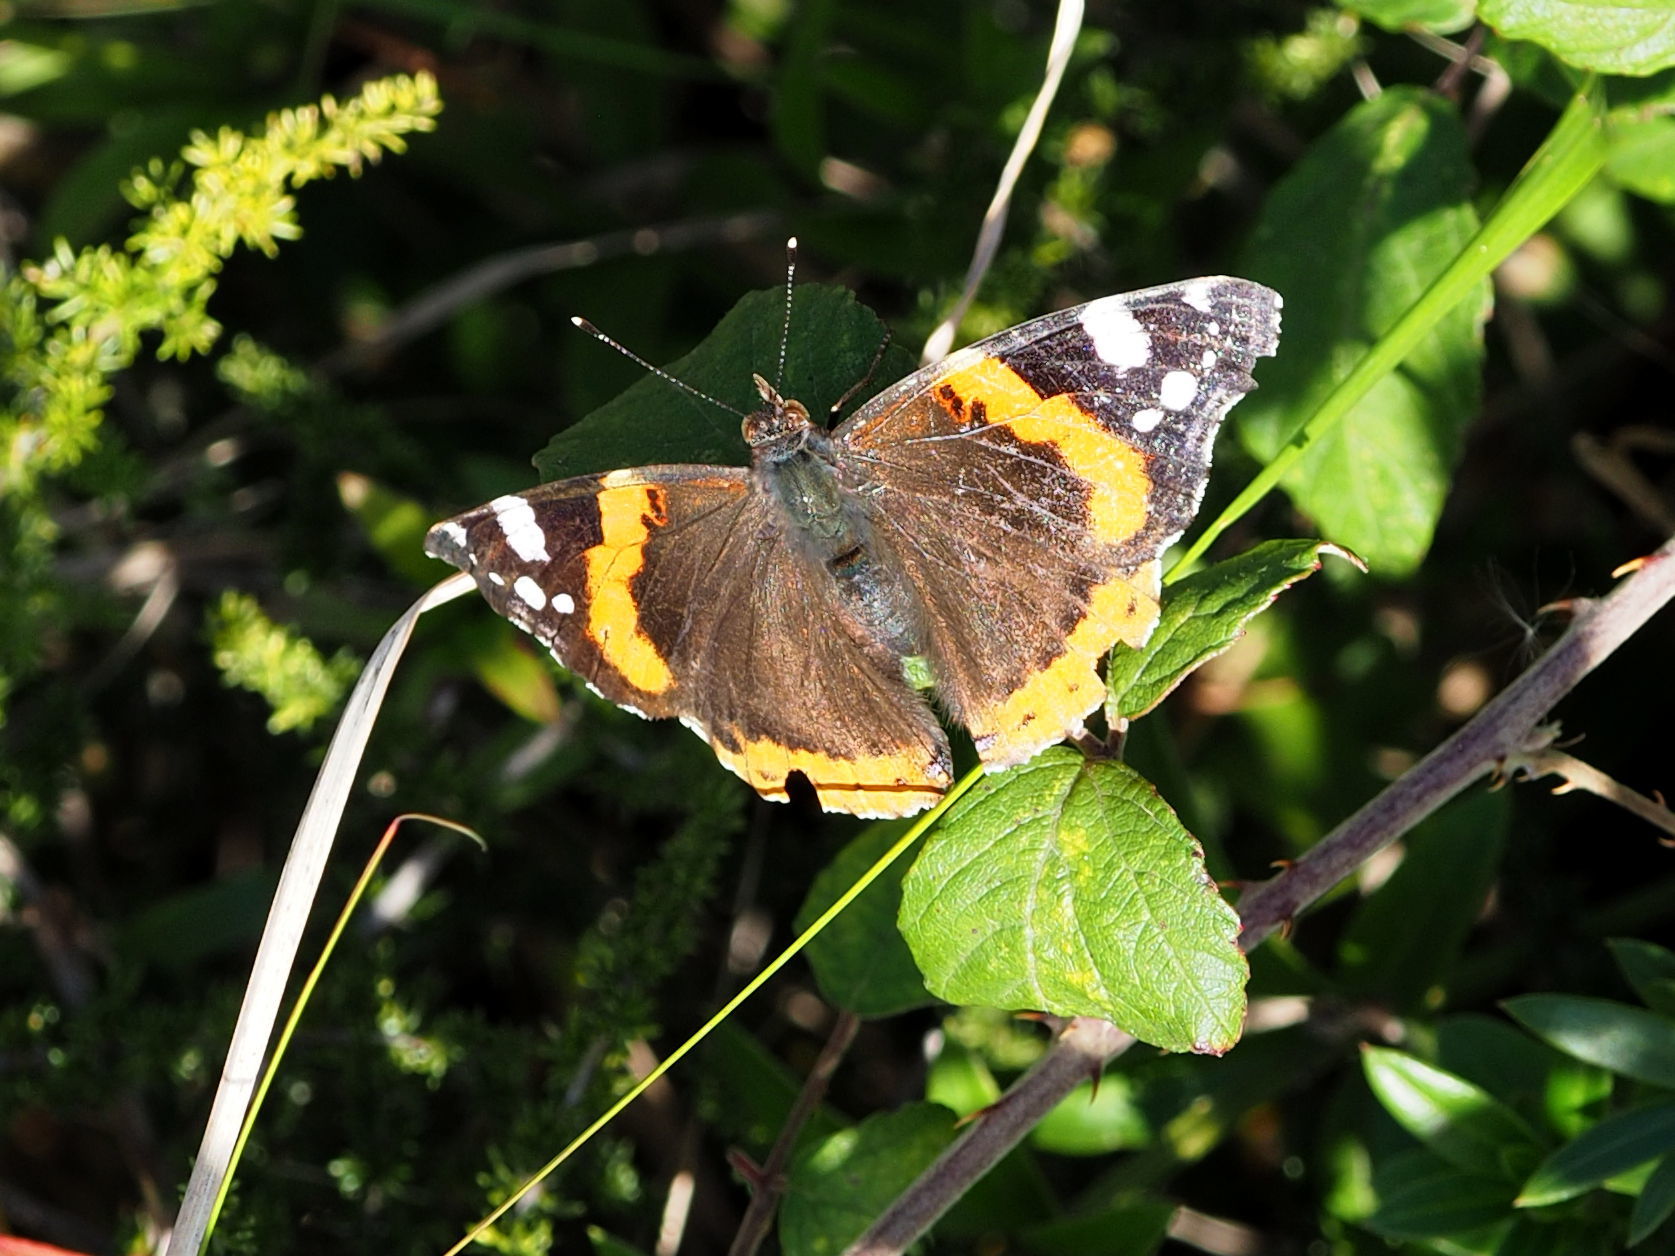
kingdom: Animalia
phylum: Arthropoda
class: Insecta
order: Lepidoptera
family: Nymphalidae
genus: Vanessa
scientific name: Vanessa atalanta
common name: Red admiral
